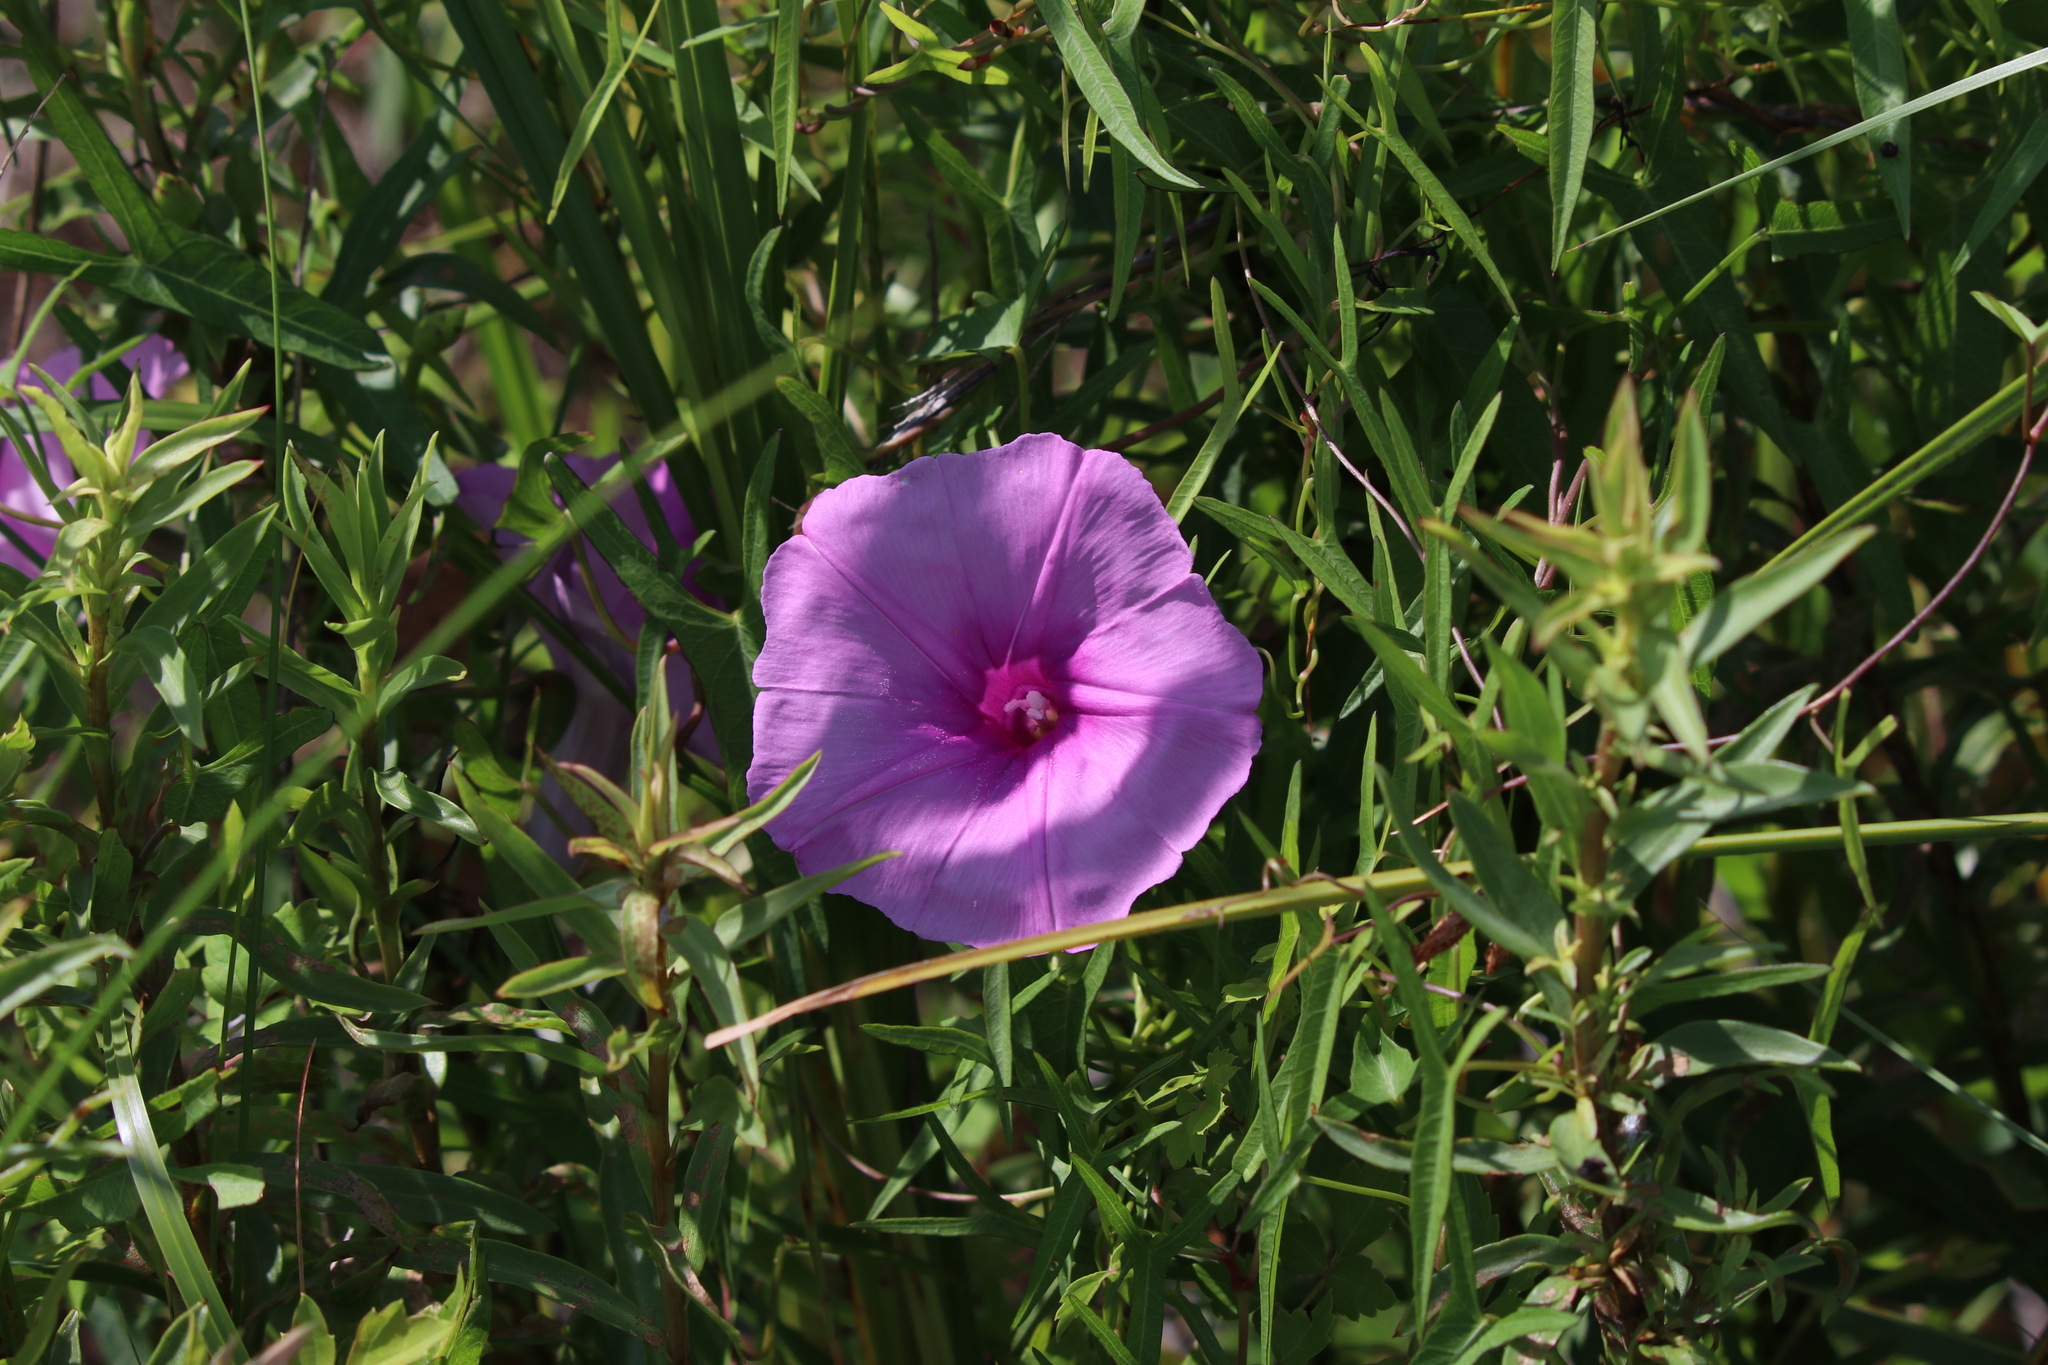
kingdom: Plantae
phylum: Tracheophyta
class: Magnoliopsida
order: Solanales
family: Convolvulaceae
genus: Ipomoea
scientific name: Ipomoea sagittata
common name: Saltmarsh morning glory
